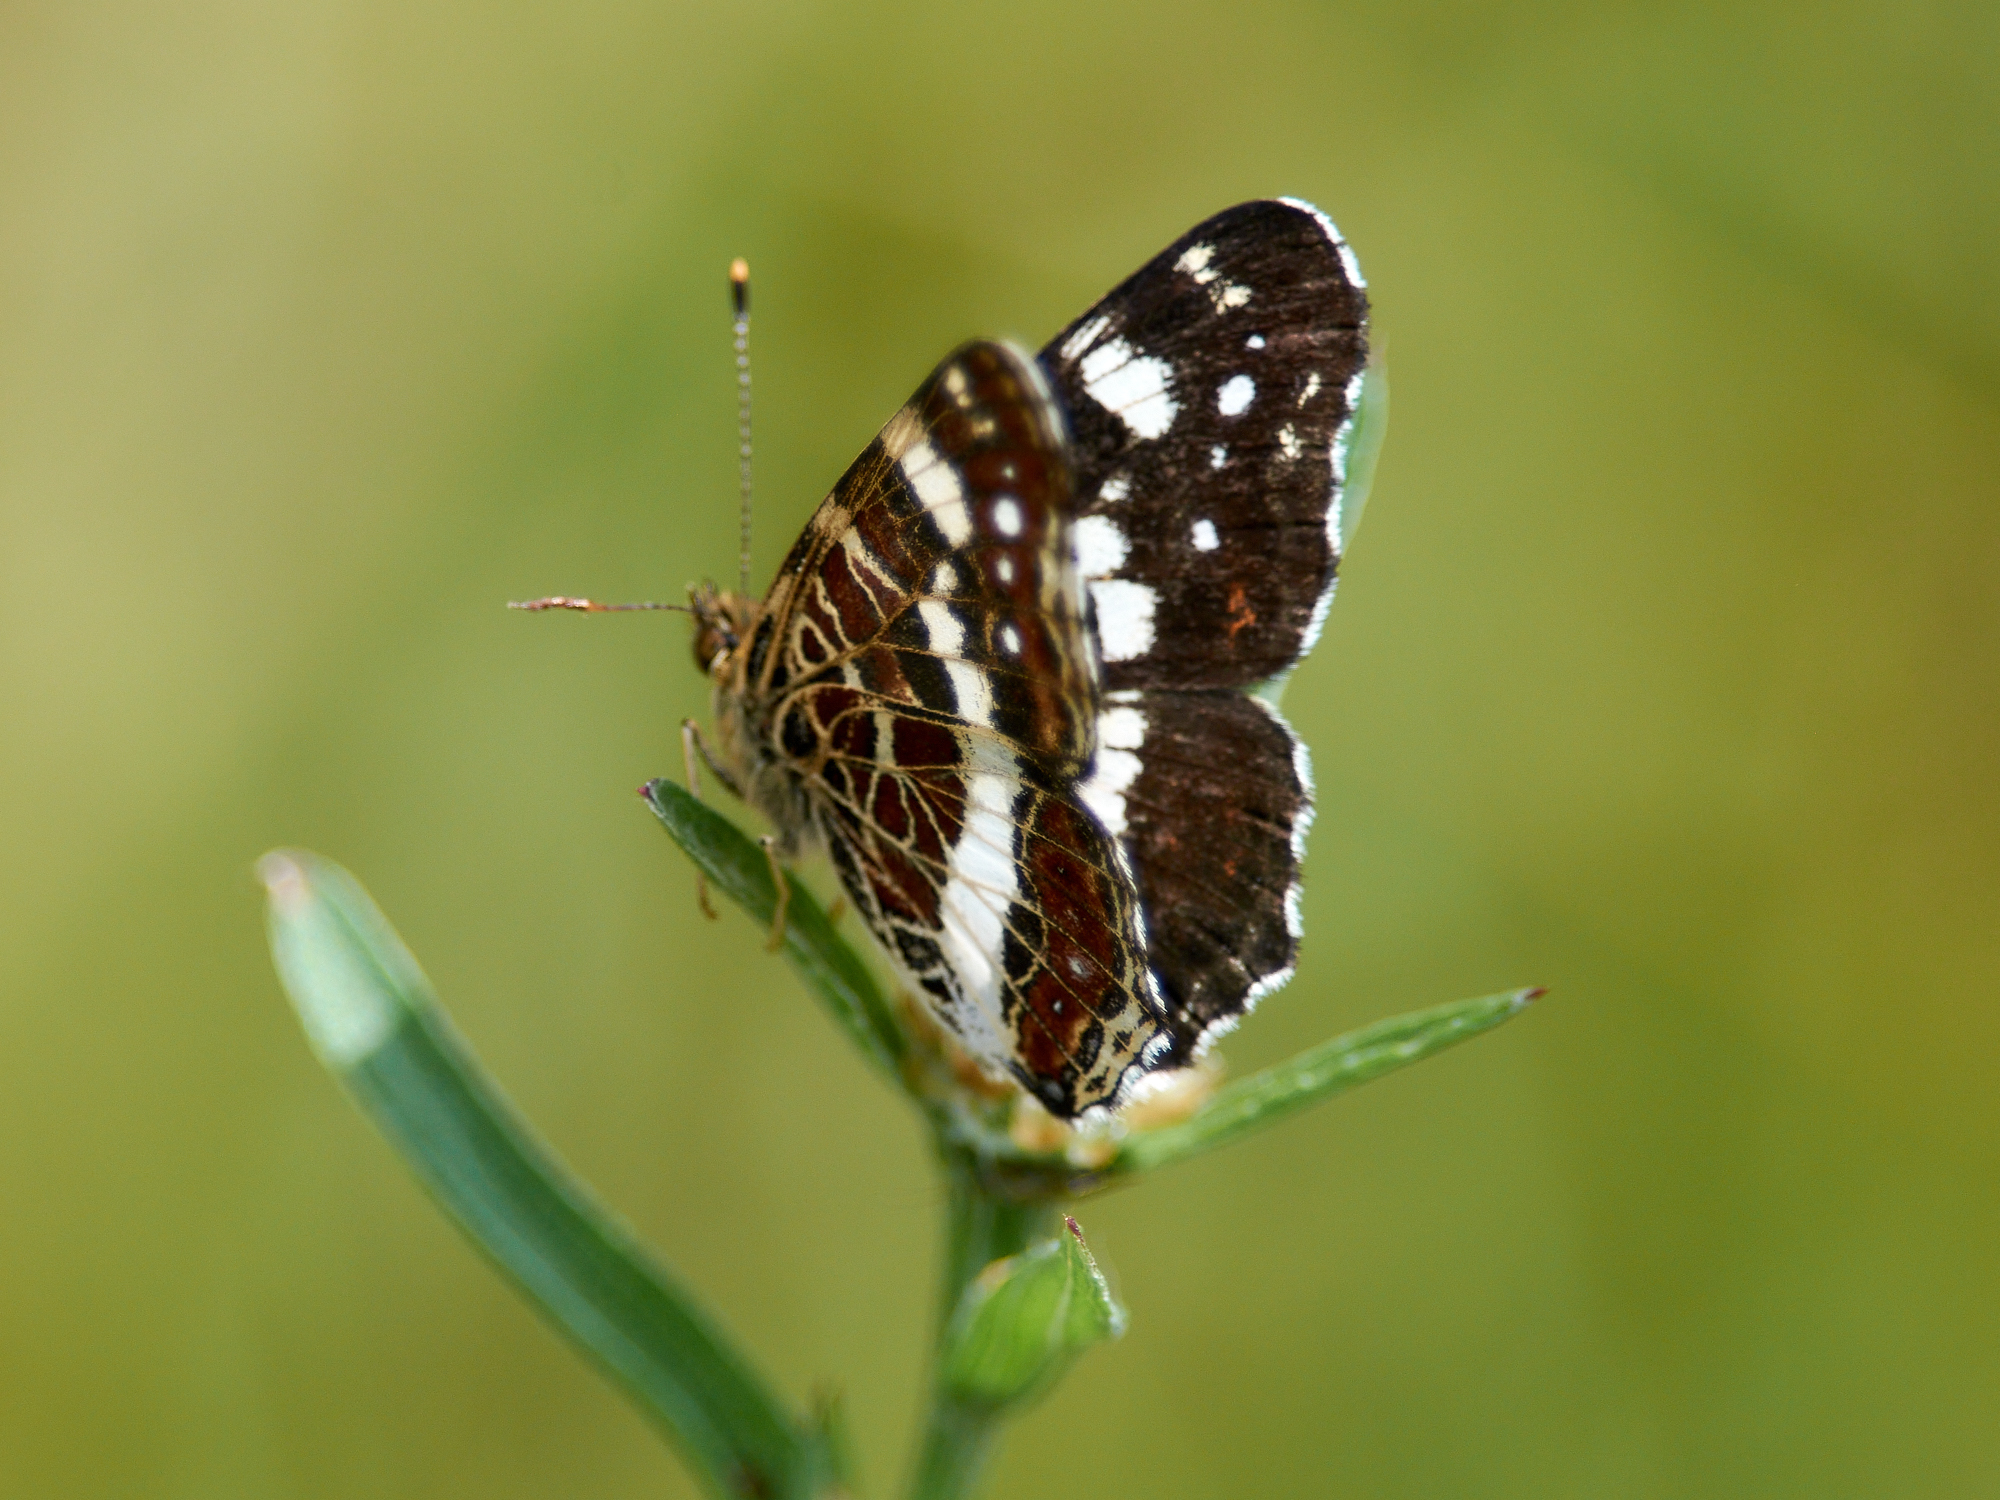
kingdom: Animalia
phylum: Arthropoda
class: Insecta
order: Lepidoptera
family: Nymphalidae
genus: Araschnia
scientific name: Araschnia levana
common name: Map butterfly
